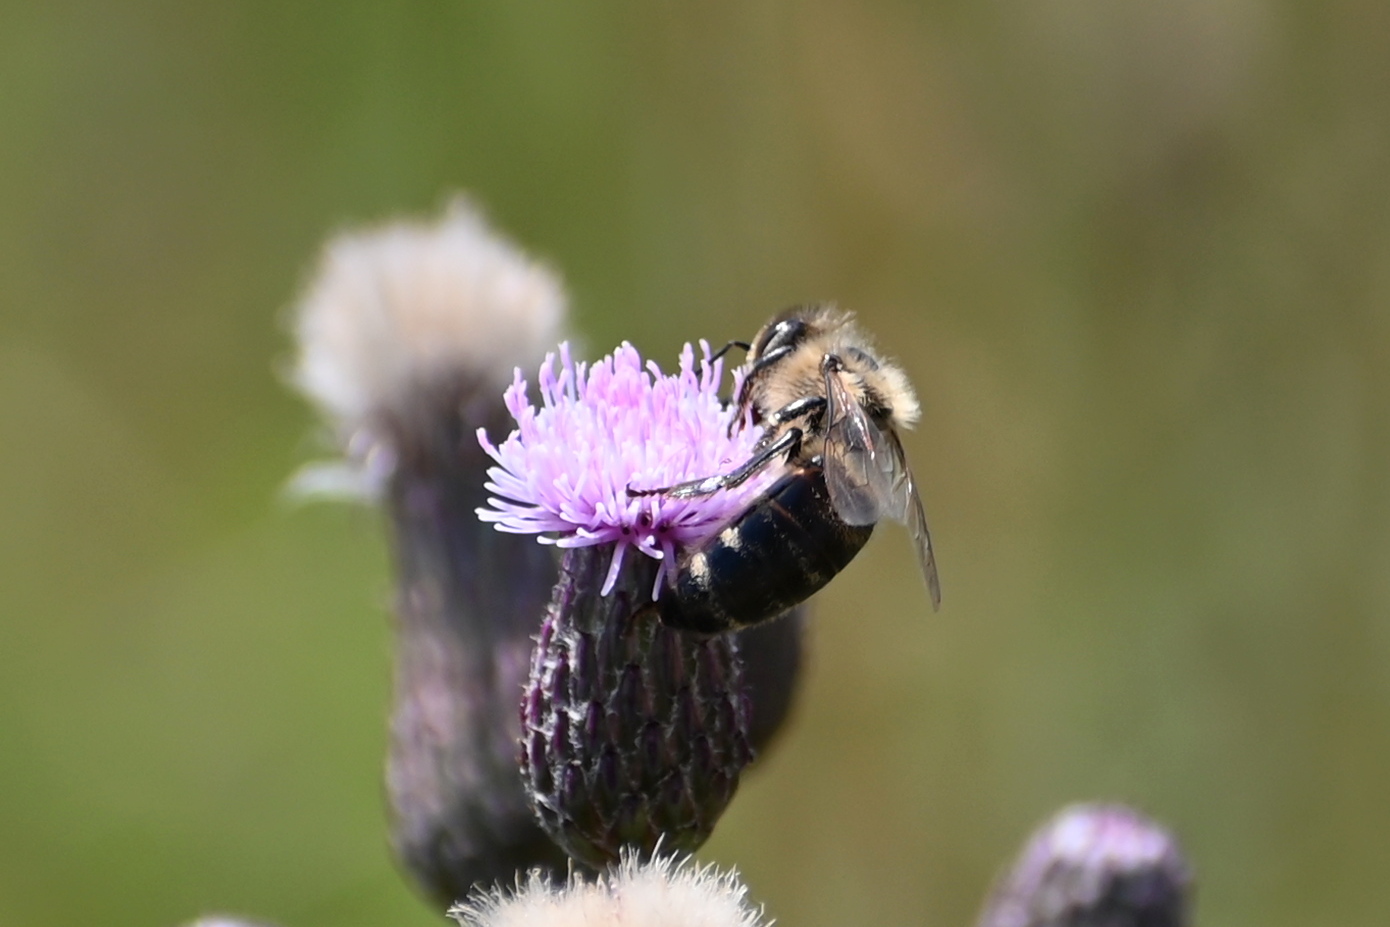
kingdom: Animalia
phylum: Arthropoda
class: Insecta
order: Hymenoptera
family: Apidae
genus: Apis
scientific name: Apis mellifera
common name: Honey bee
